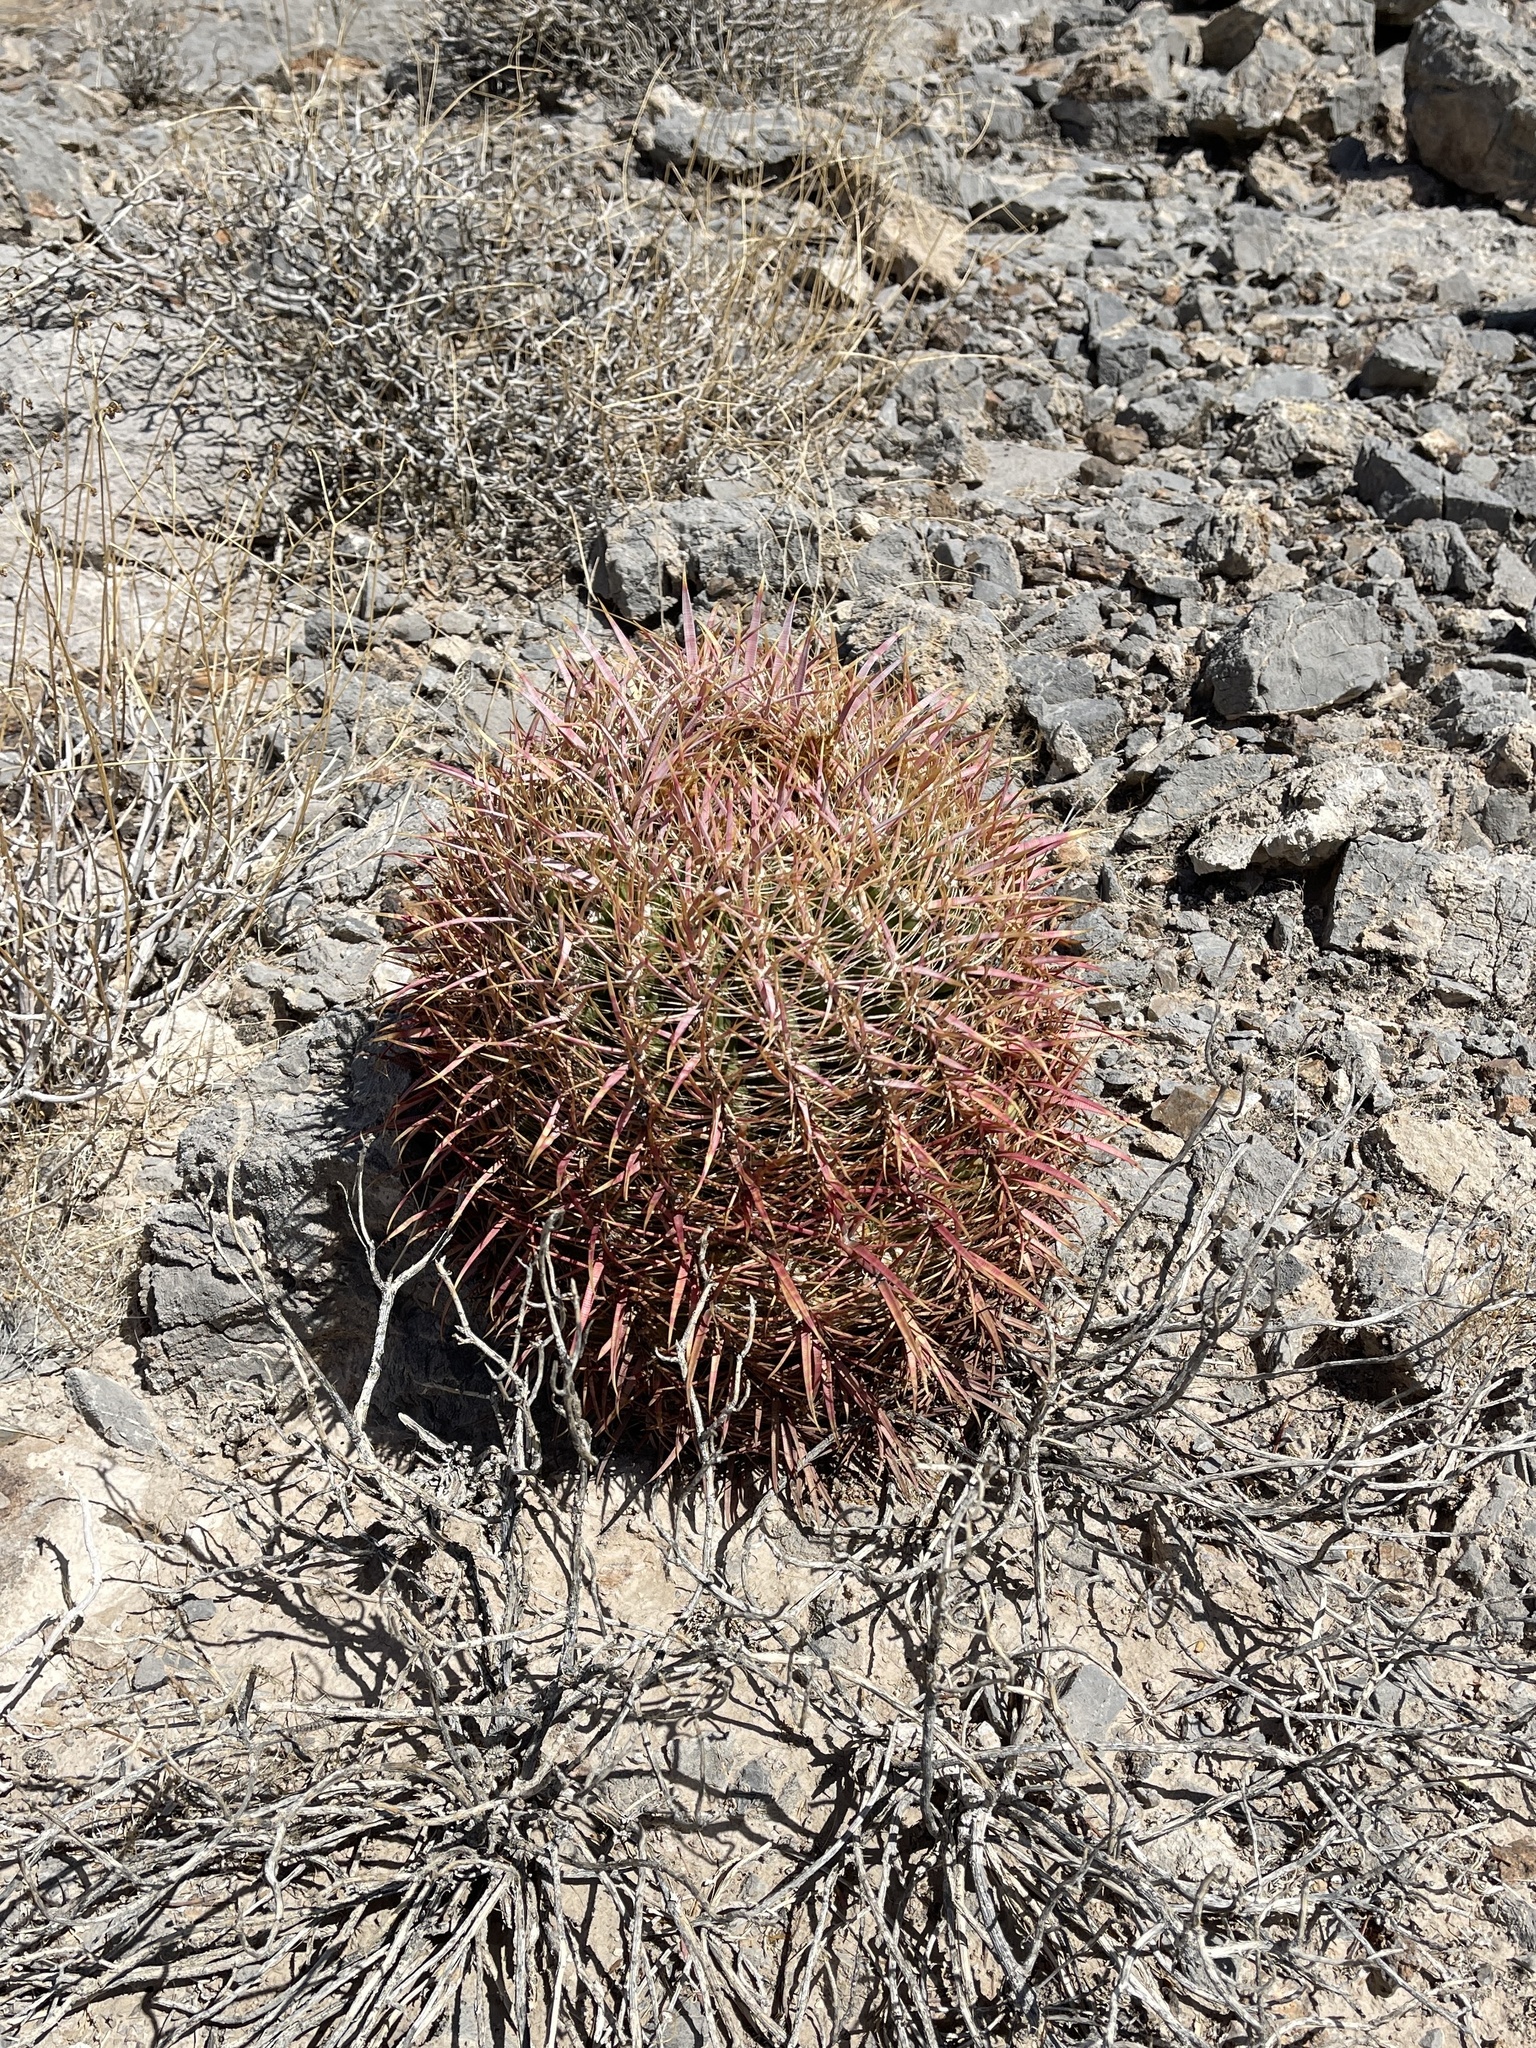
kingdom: Plantae
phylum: Tracheophyta
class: Magnoliopsida
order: Caryophyllales
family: Cactaceae
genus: Ferocactus
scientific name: Ferocactus cylindraceus
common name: California barrel cactus
